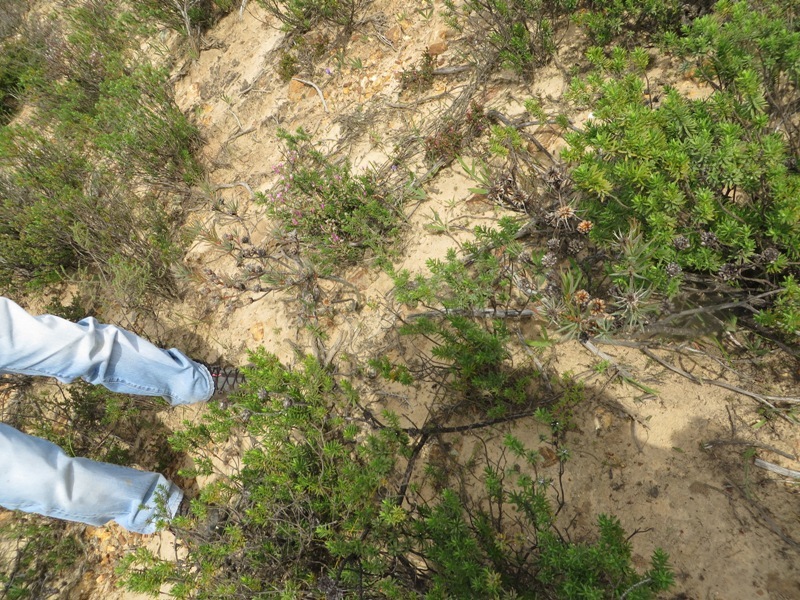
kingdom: Plantae
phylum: Tracheophyta
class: Magnoliopsida
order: Proteales
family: Proteaceae
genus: Protea
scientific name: Protea mucronifolia
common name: Dagger-leaf sugarbush
